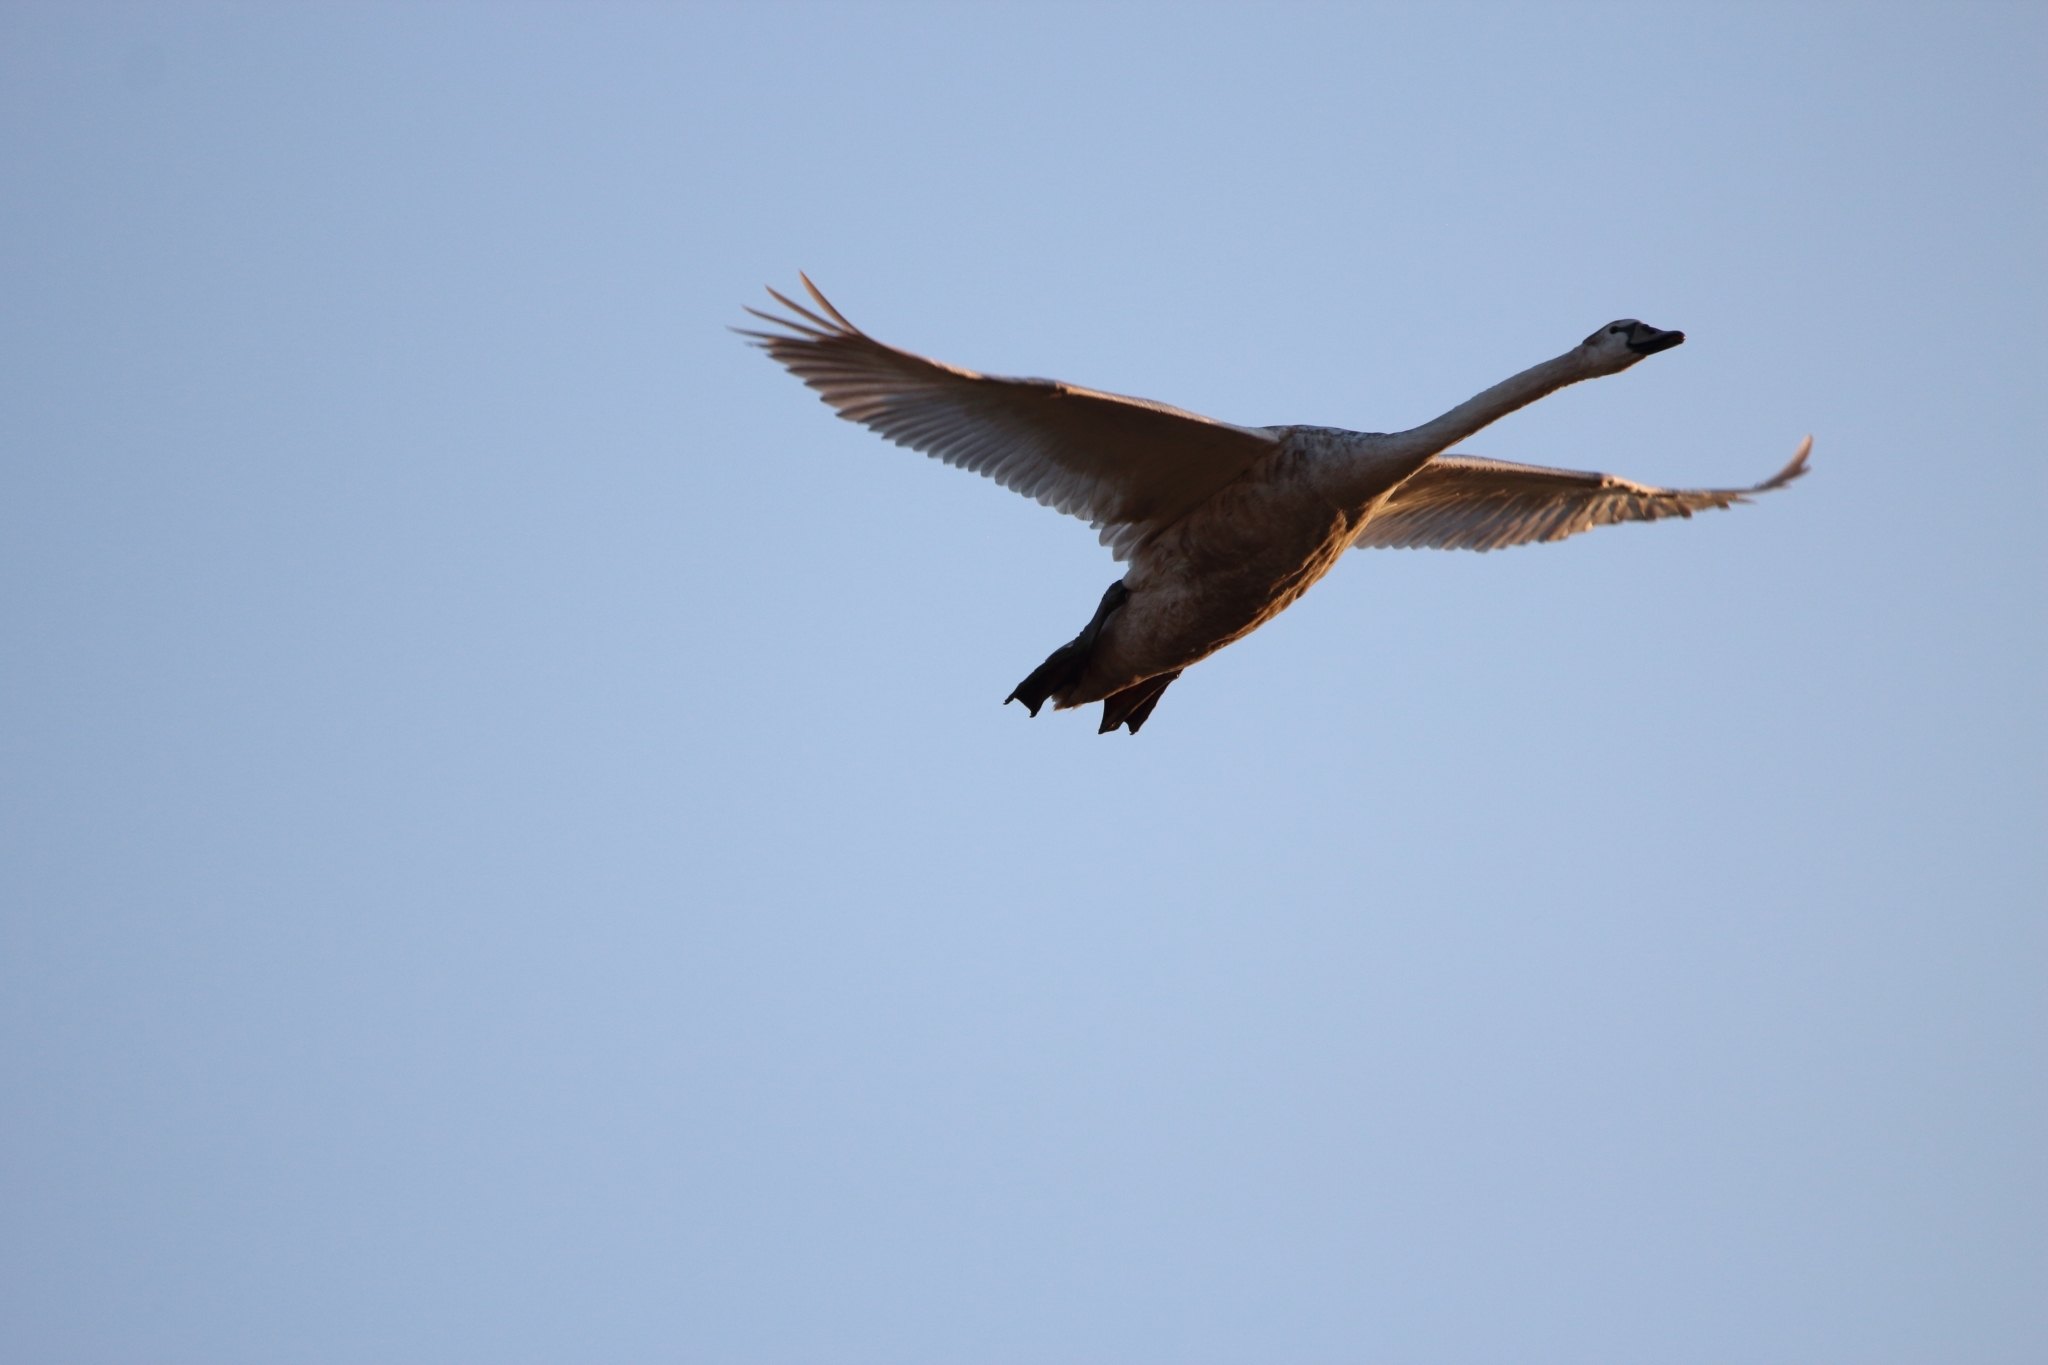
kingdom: Animalia
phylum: Chordata
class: Aves
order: Anseriformes
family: Anatidae
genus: Cygnus
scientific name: Cygnus olor
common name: Mute swan
